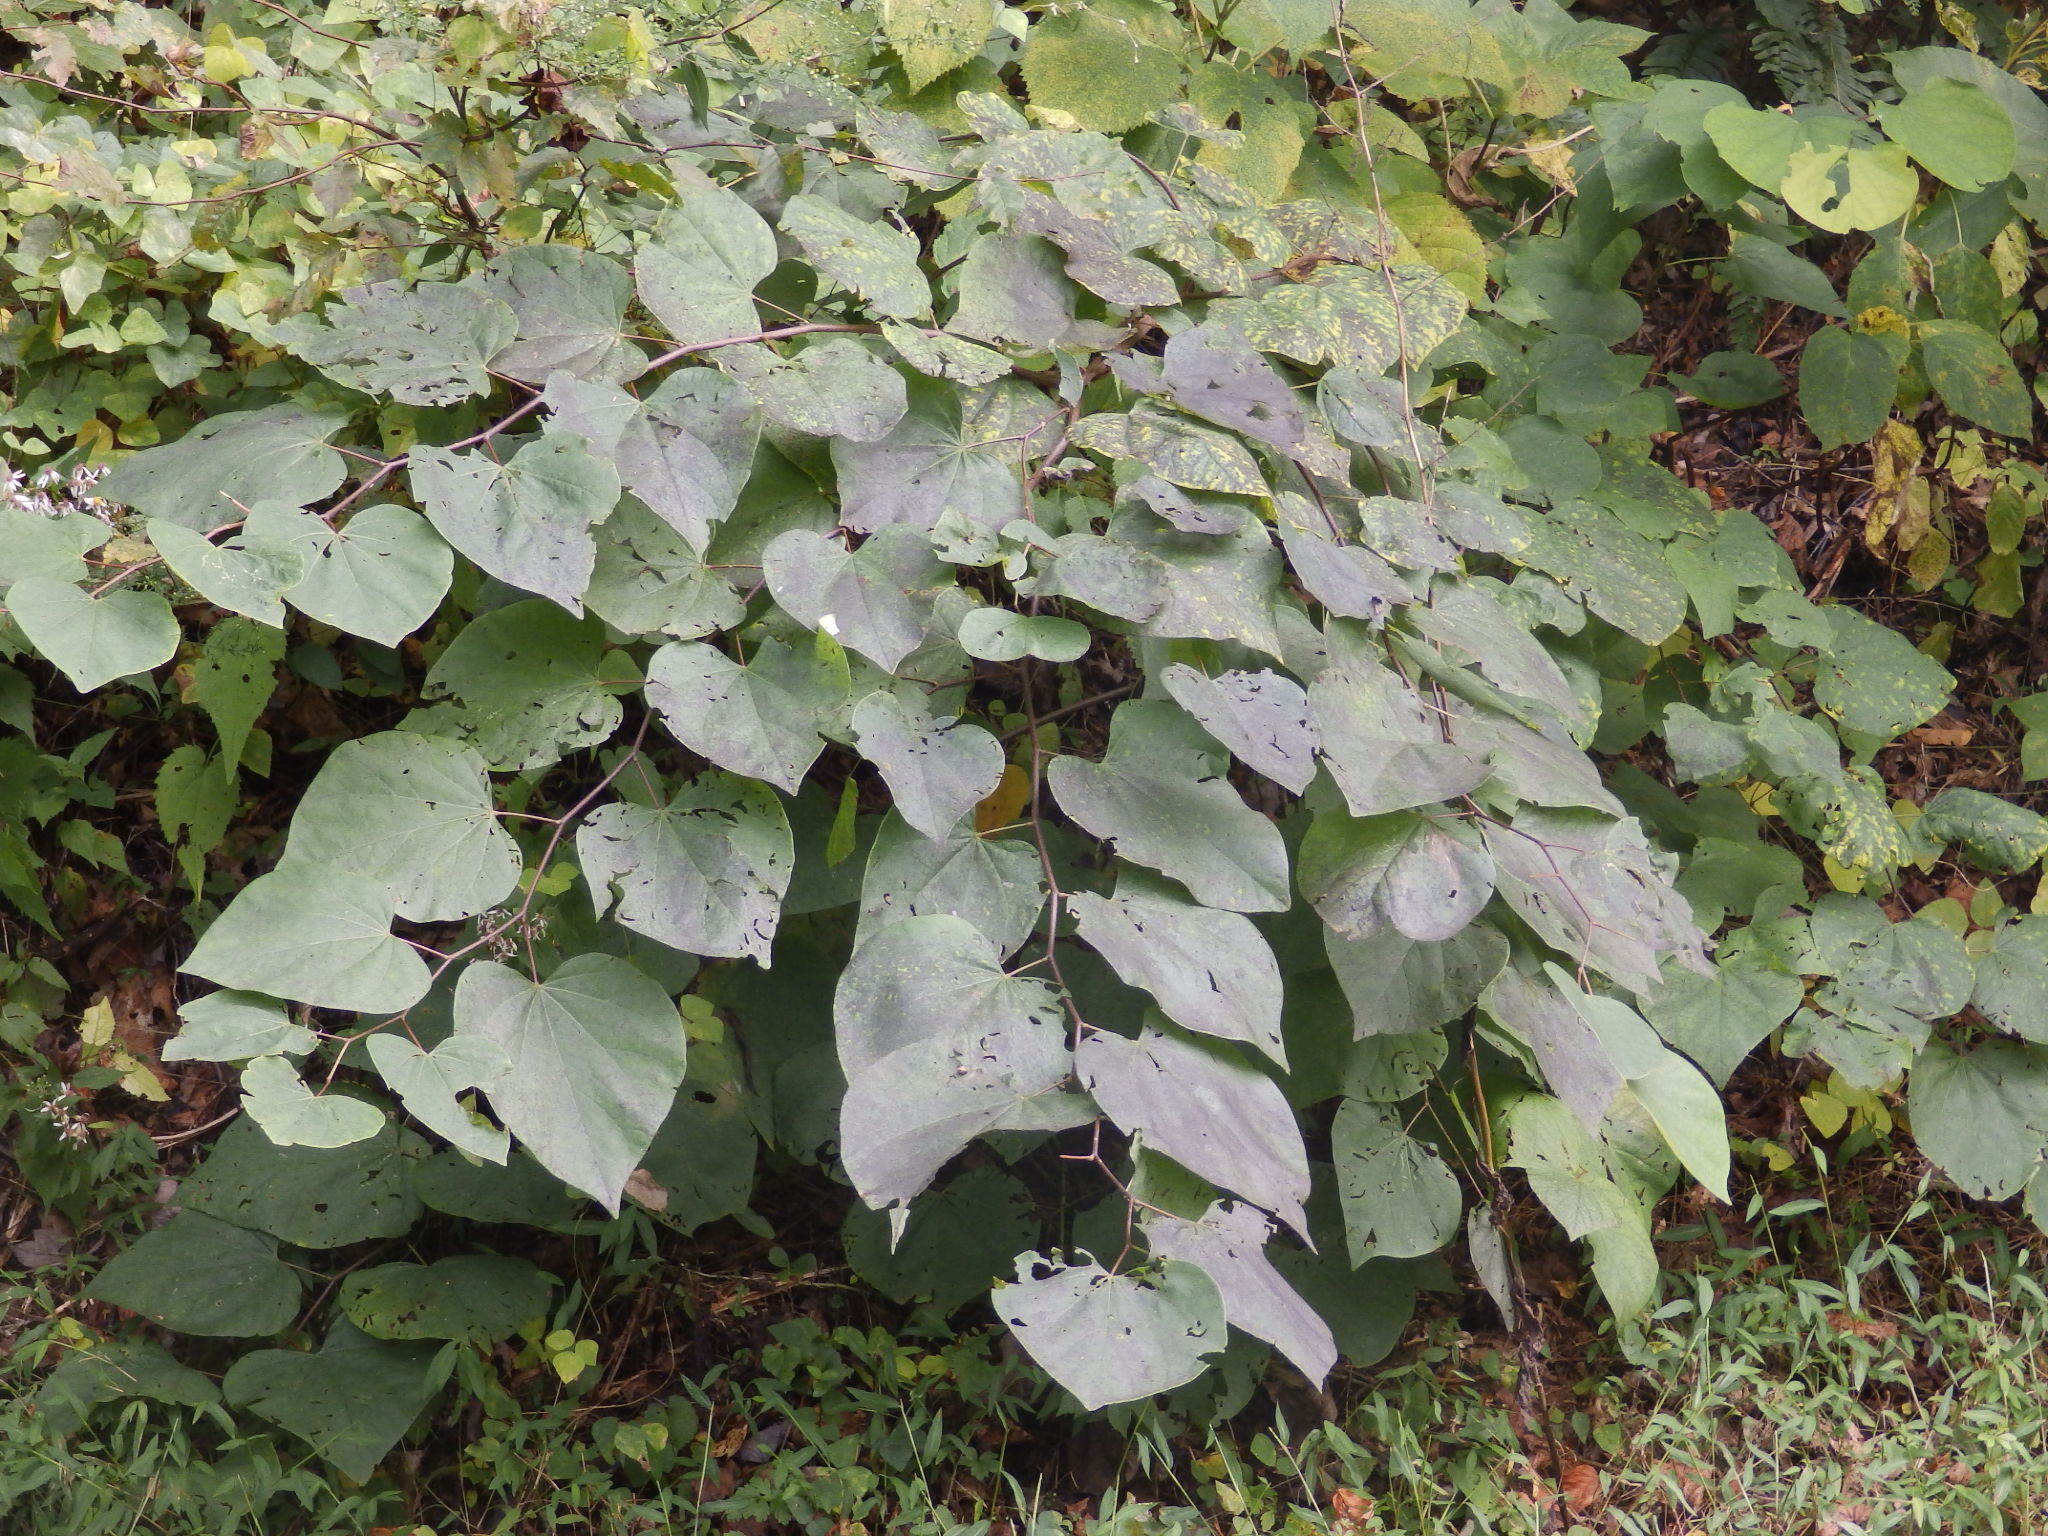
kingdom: Plantae
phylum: Tracheophyta
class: Magnoliopsida
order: Fabales
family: Fabaceae
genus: Cercis
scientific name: Cercis canadensis
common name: Eastern redbud
